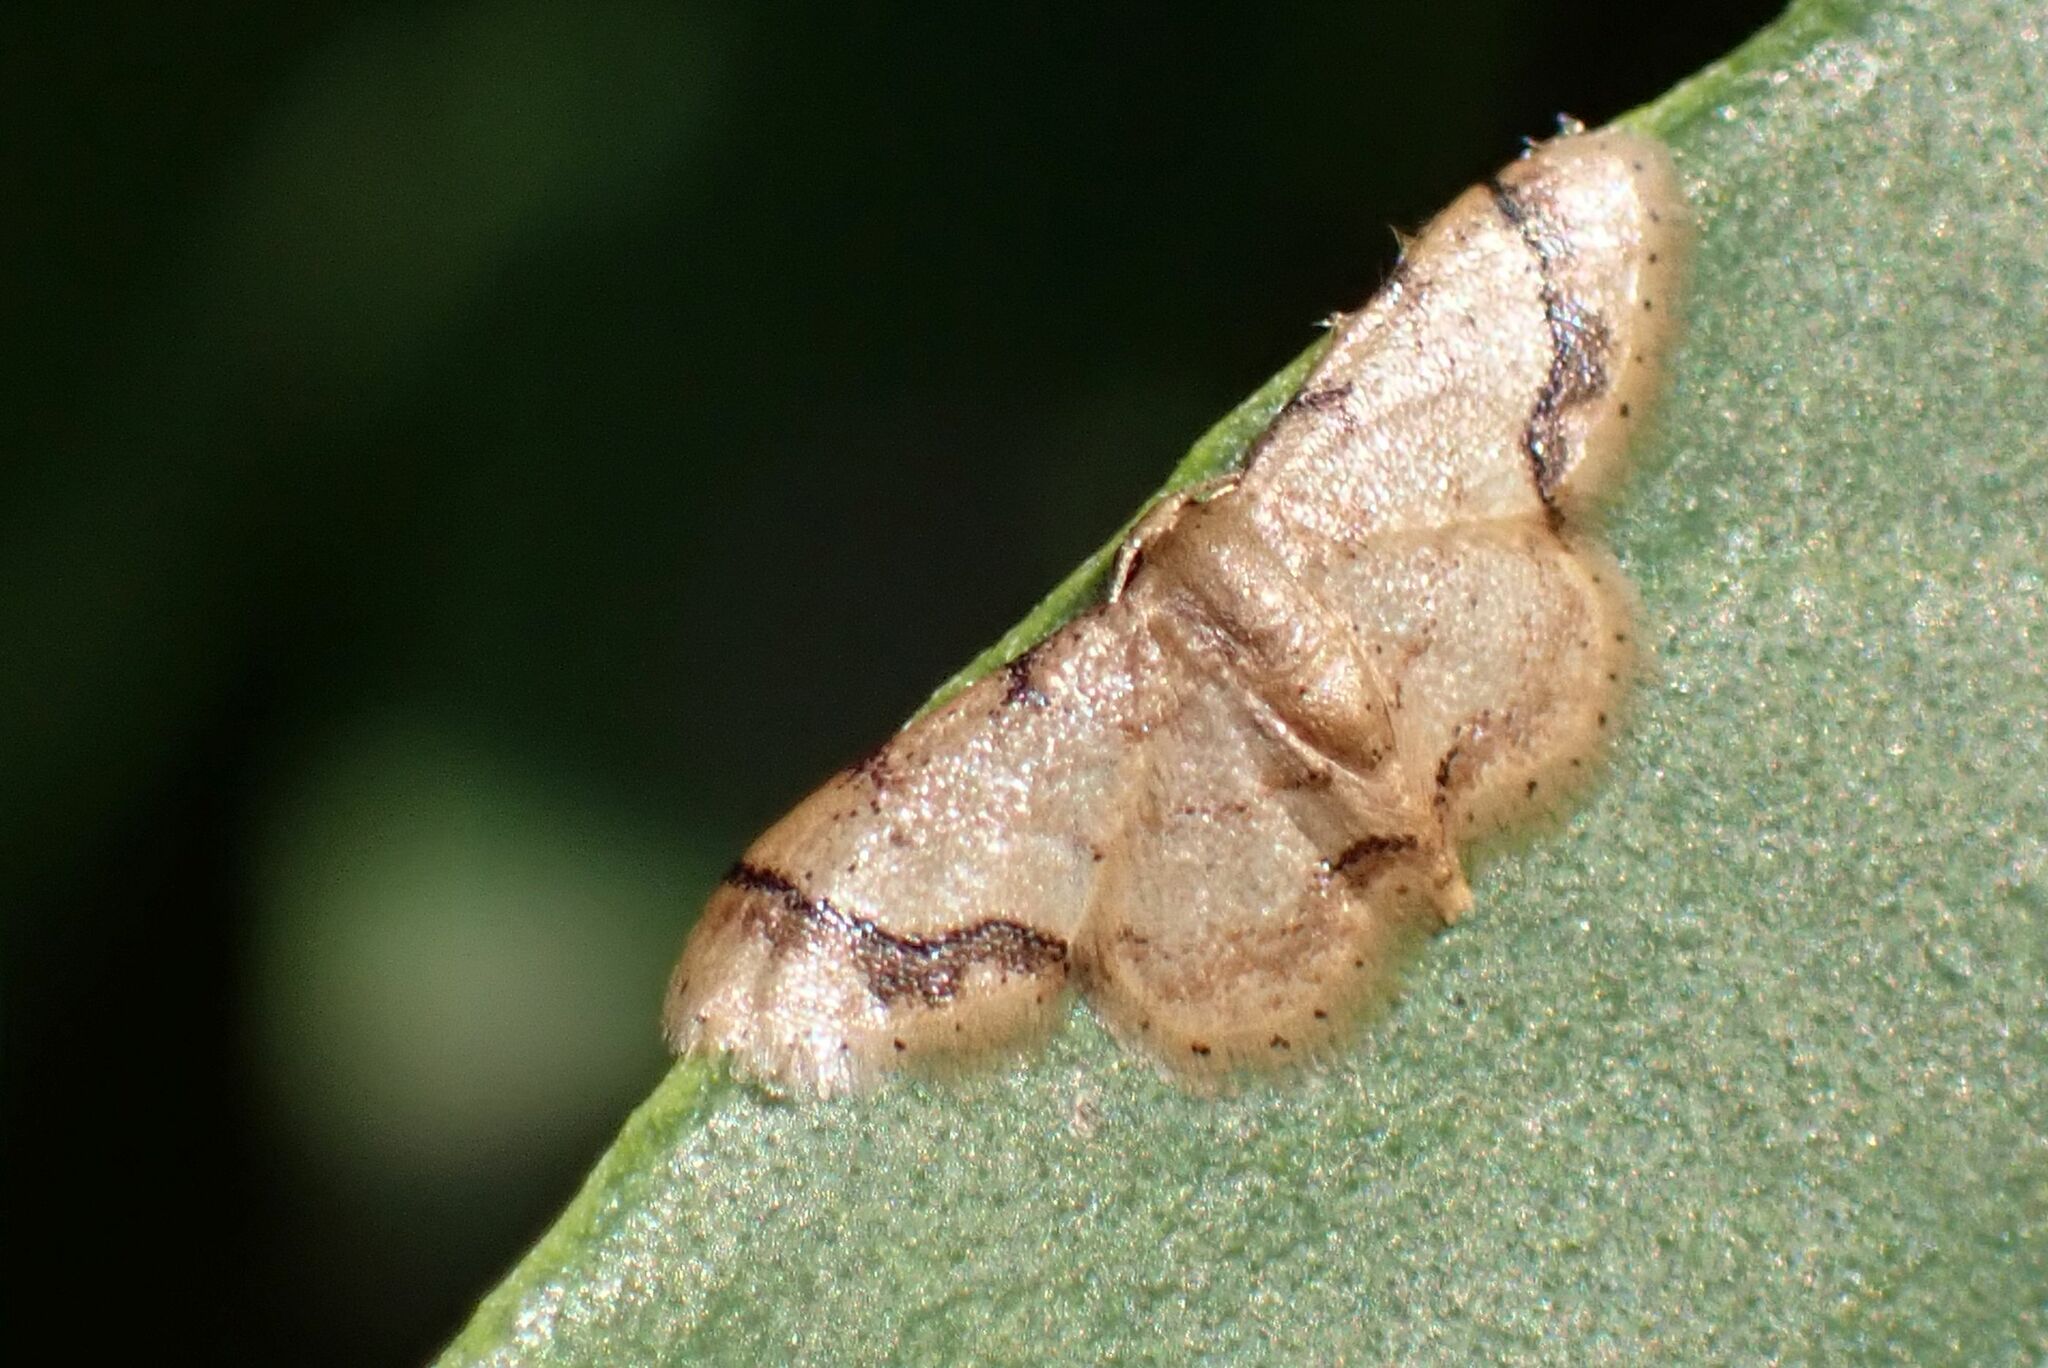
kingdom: Animalia
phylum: Arthropoda
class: Insecta
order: Lepidoptera
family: Geometridae
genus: Idaea
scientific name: Idaea basicostalis
